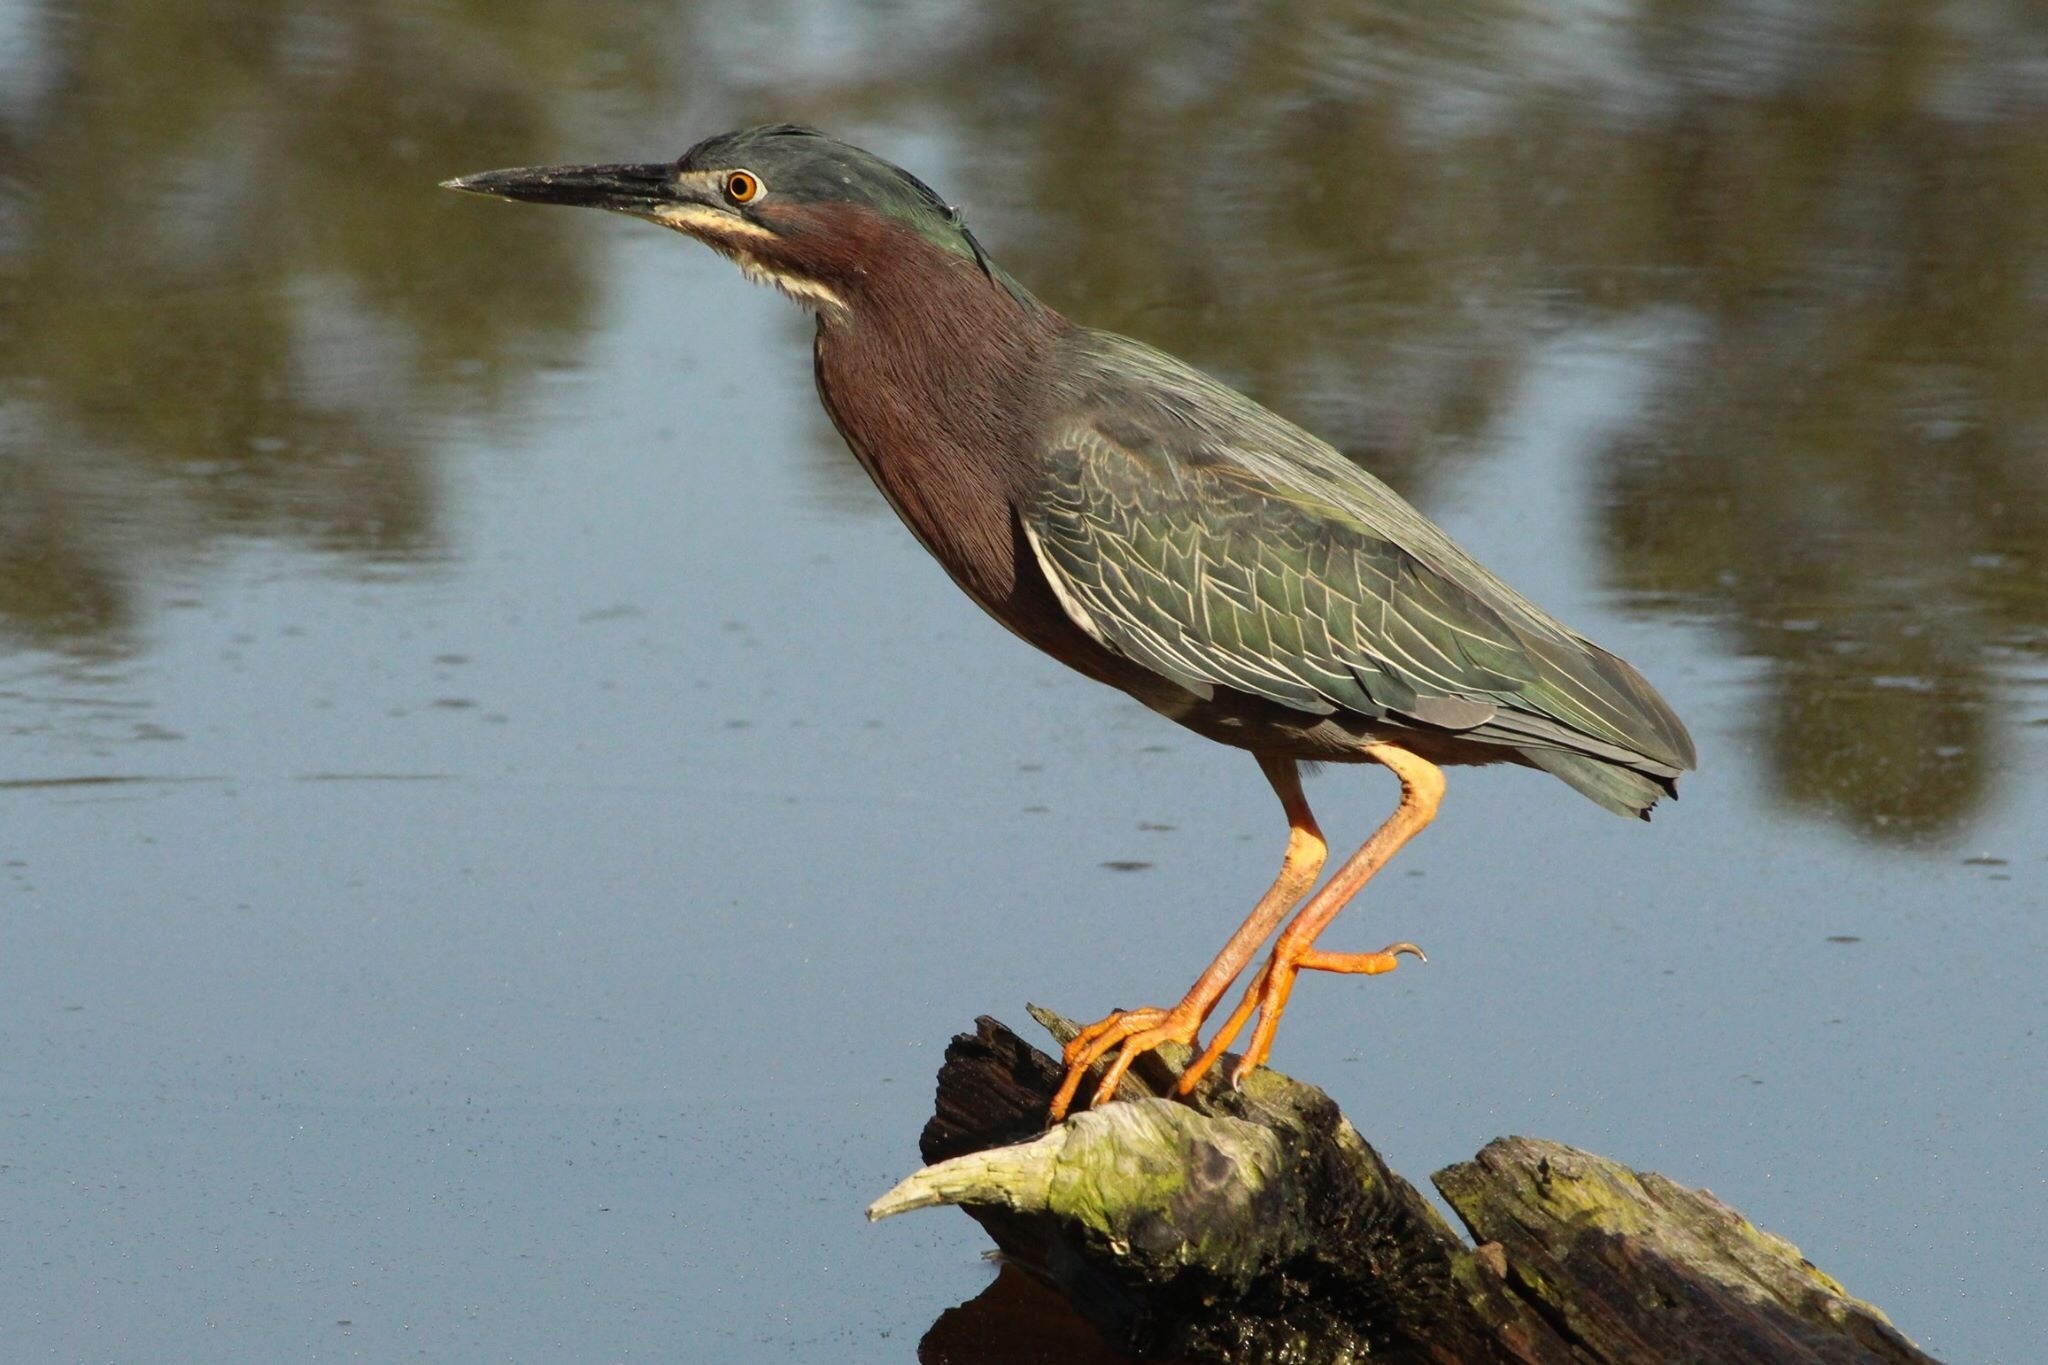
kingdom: Animalia
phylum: Chordata
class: Aves
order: Pelecaniformes
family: Ardeidae
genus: Butorides
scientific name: Butorides virescens
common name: Green heron
